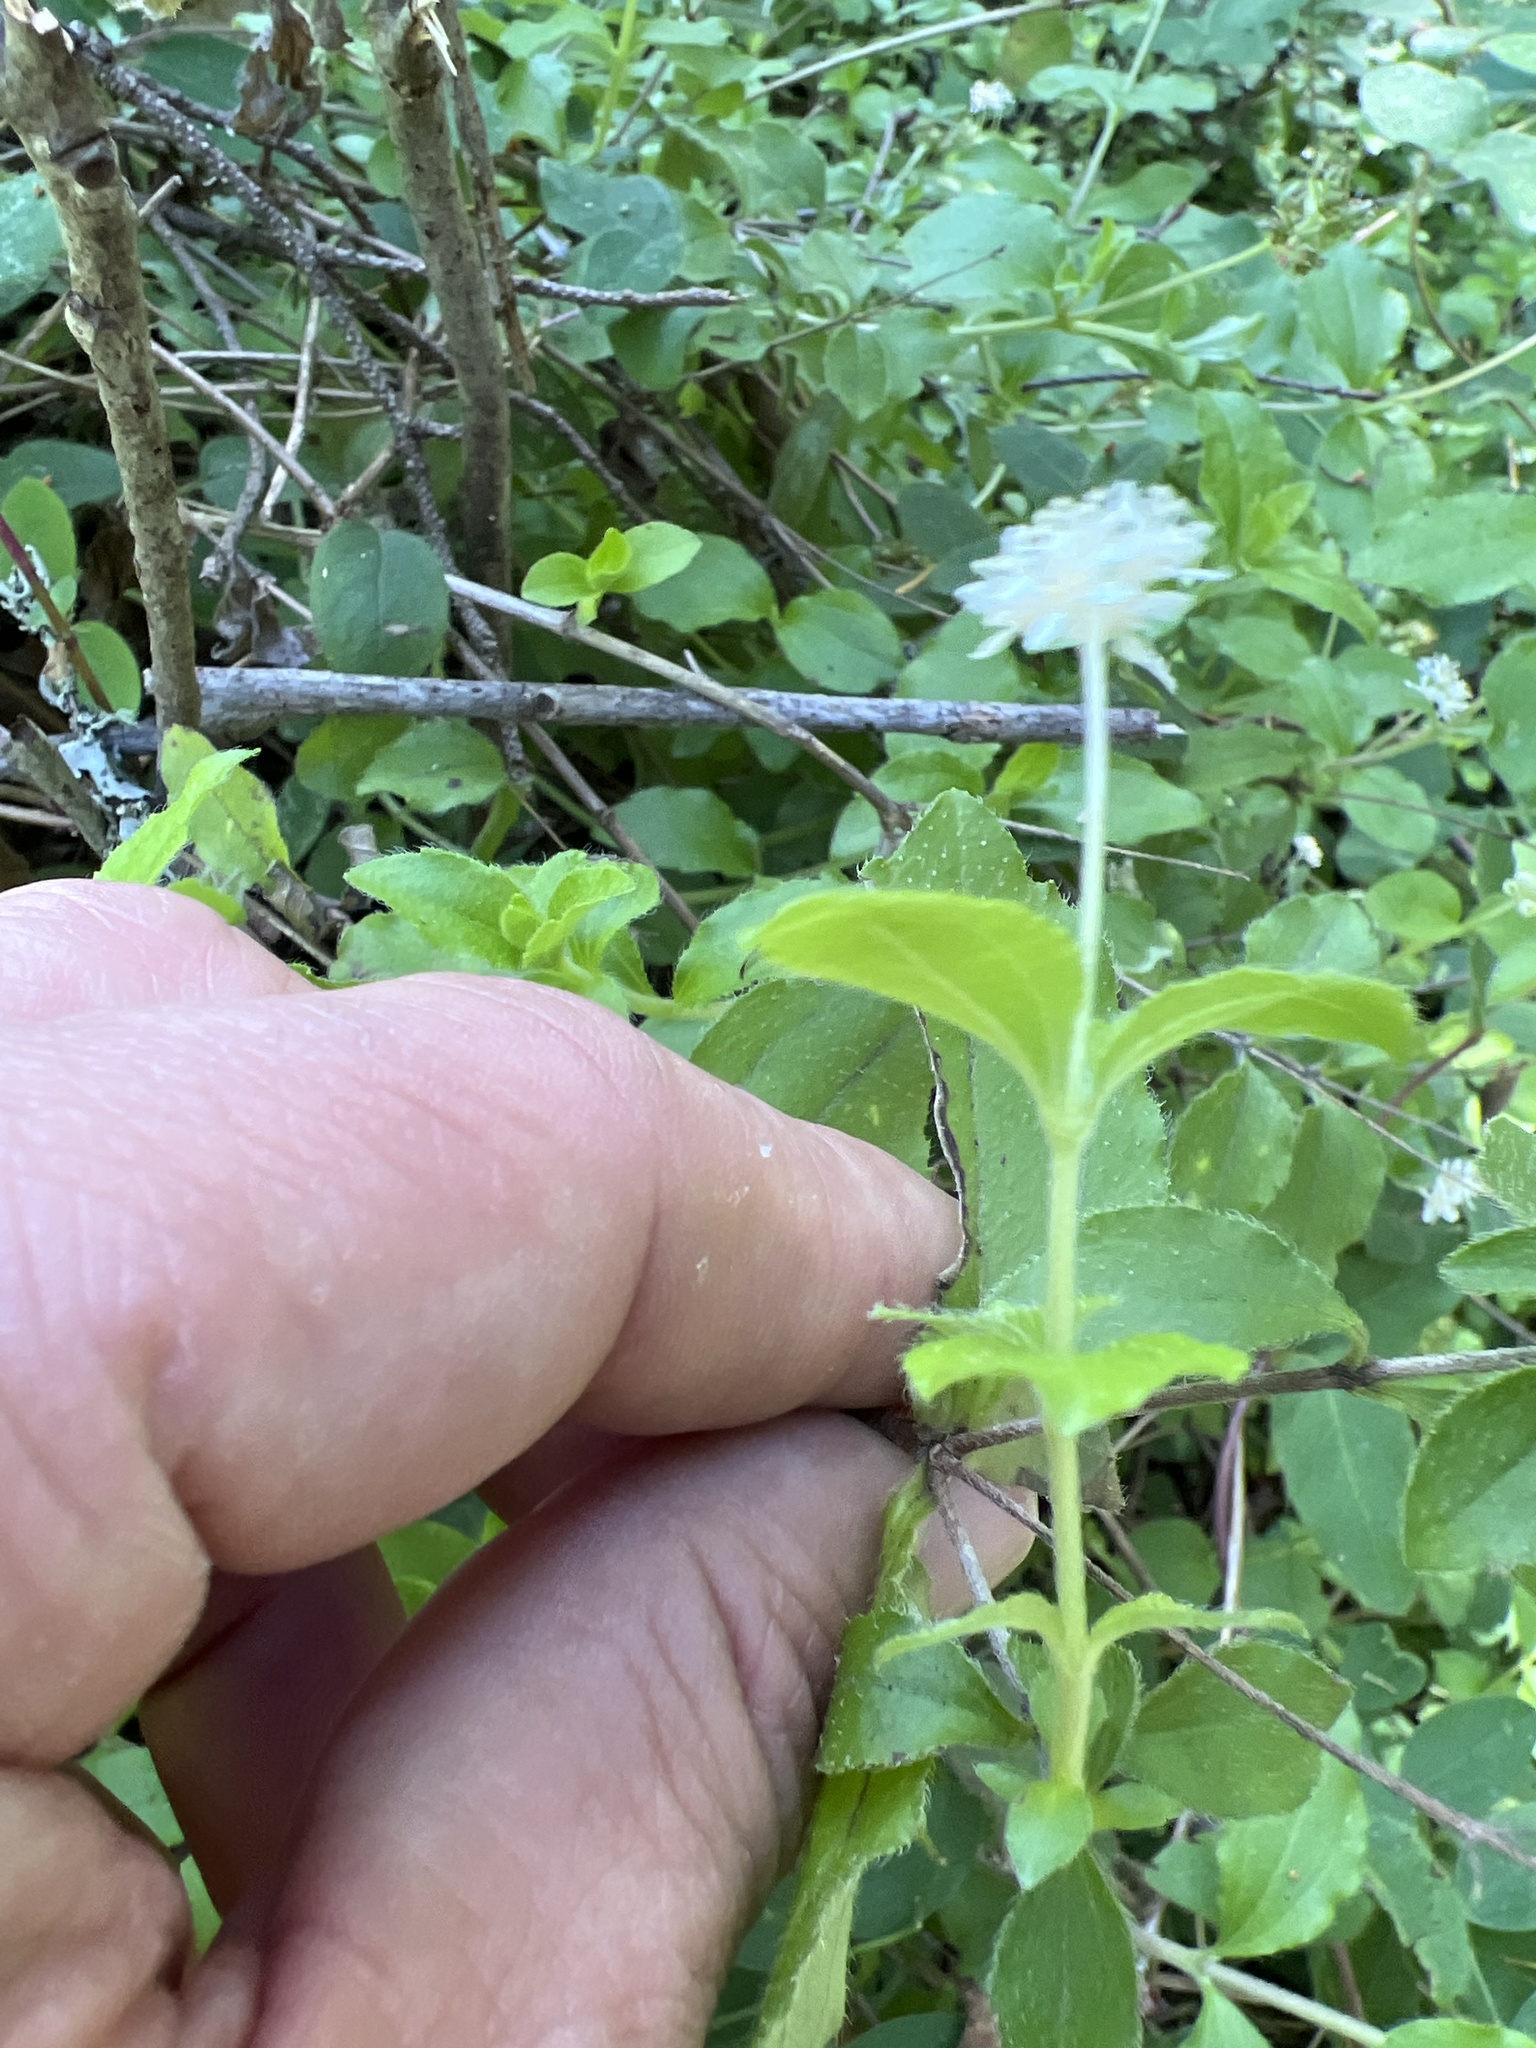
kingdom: Plantae
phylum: Tracheophyta
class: Magnoliopsida
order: Cornales
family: Hydrangeaceae
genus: Whipplea
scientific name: Whipplea modesta
